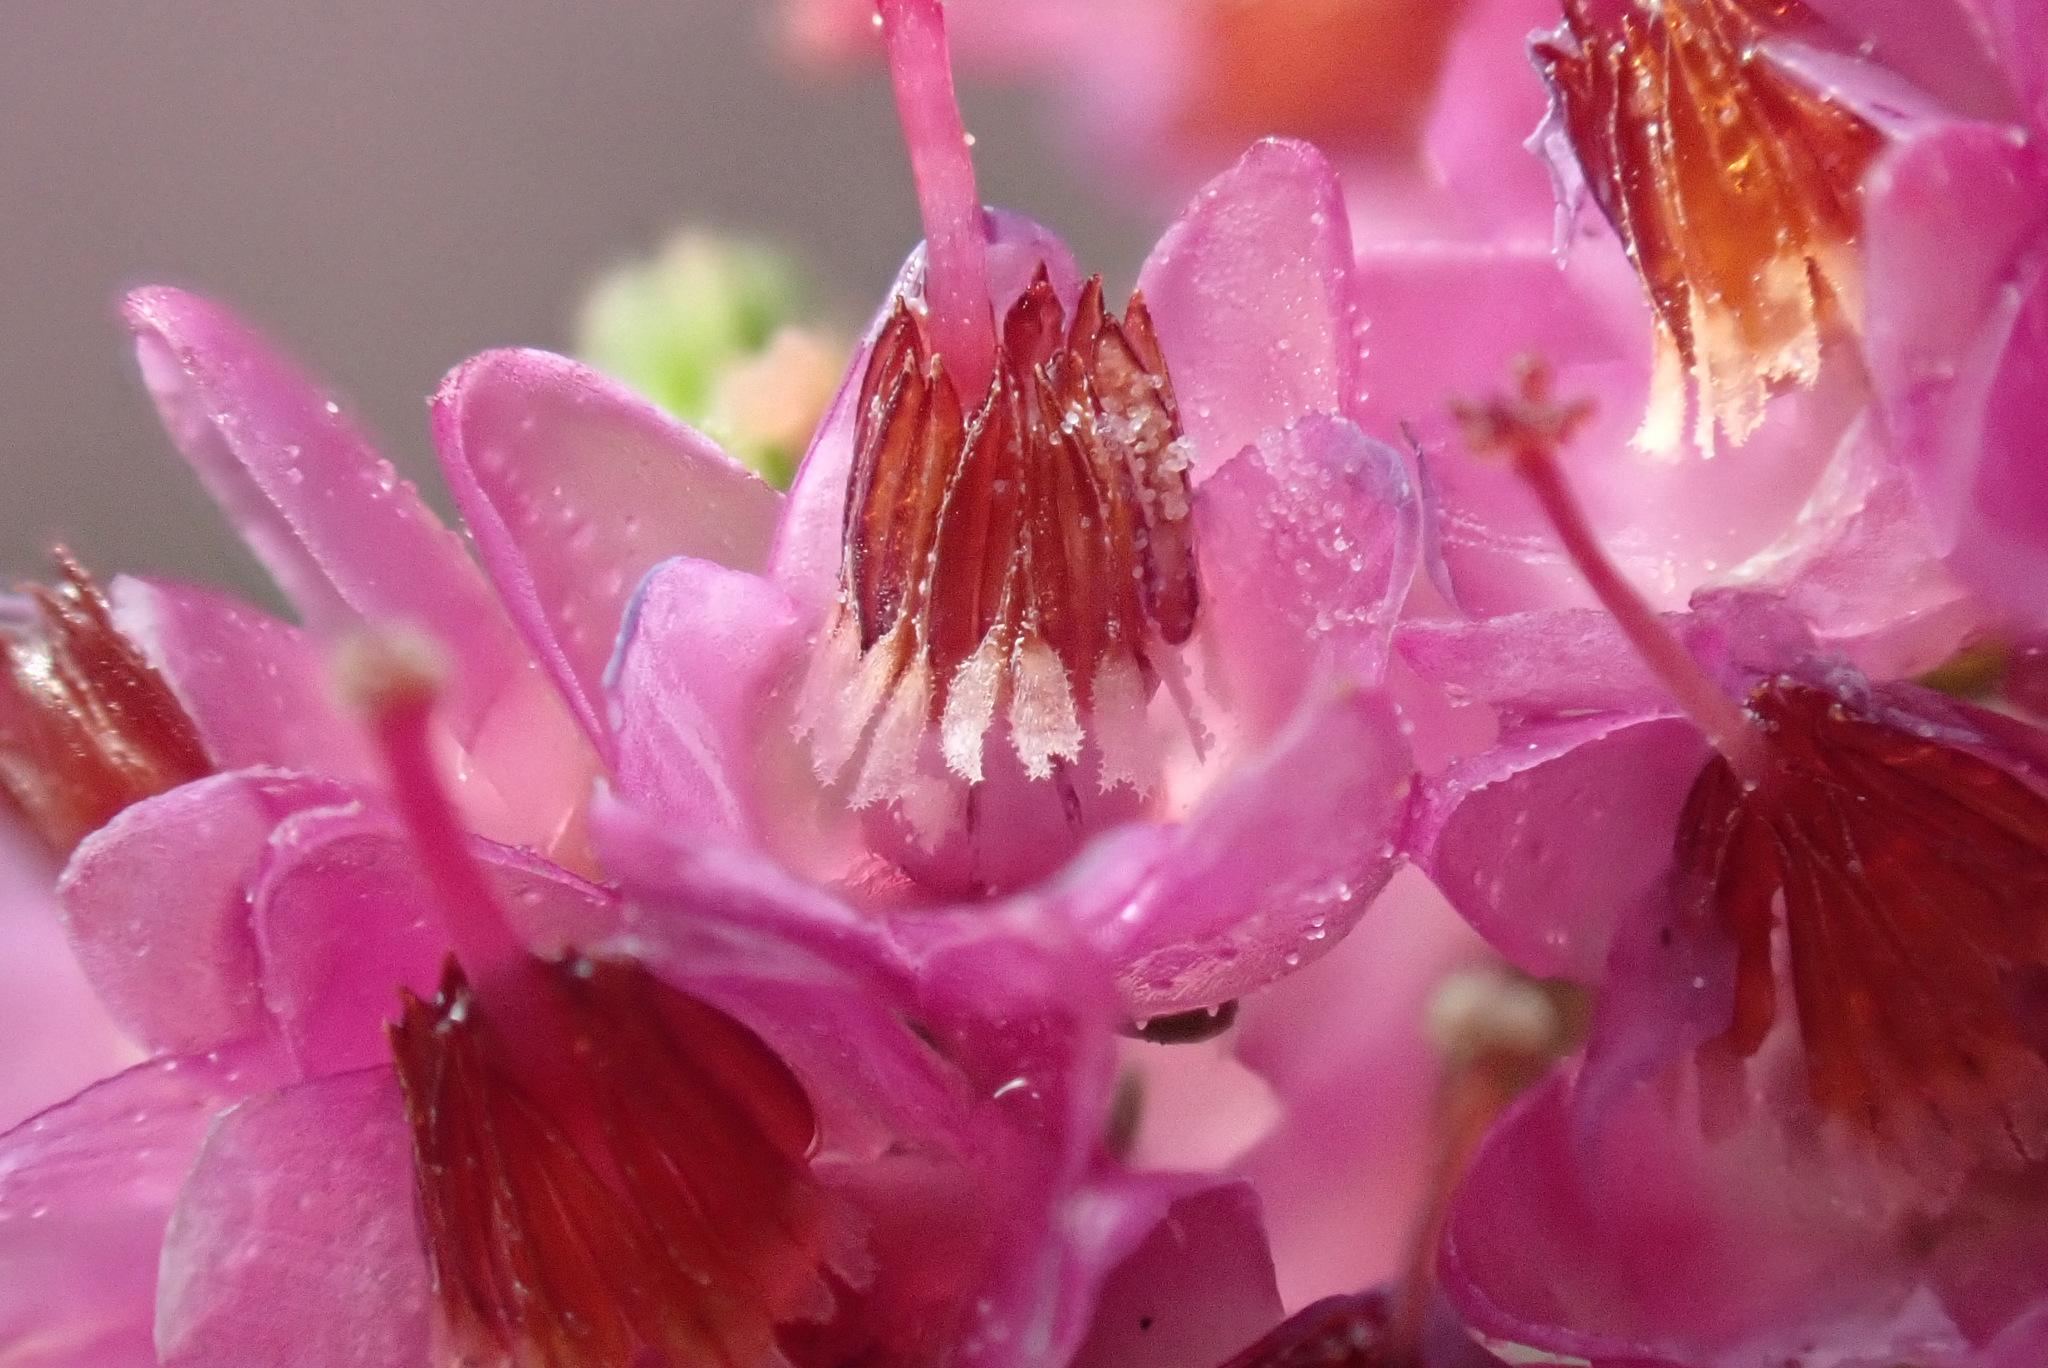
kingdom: Plantae
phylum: Tracheophyta
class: Magnoliopsida
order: Ericales
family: Ericaceae
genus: Calluna
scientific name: Calluna vulgaris
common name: Heather
